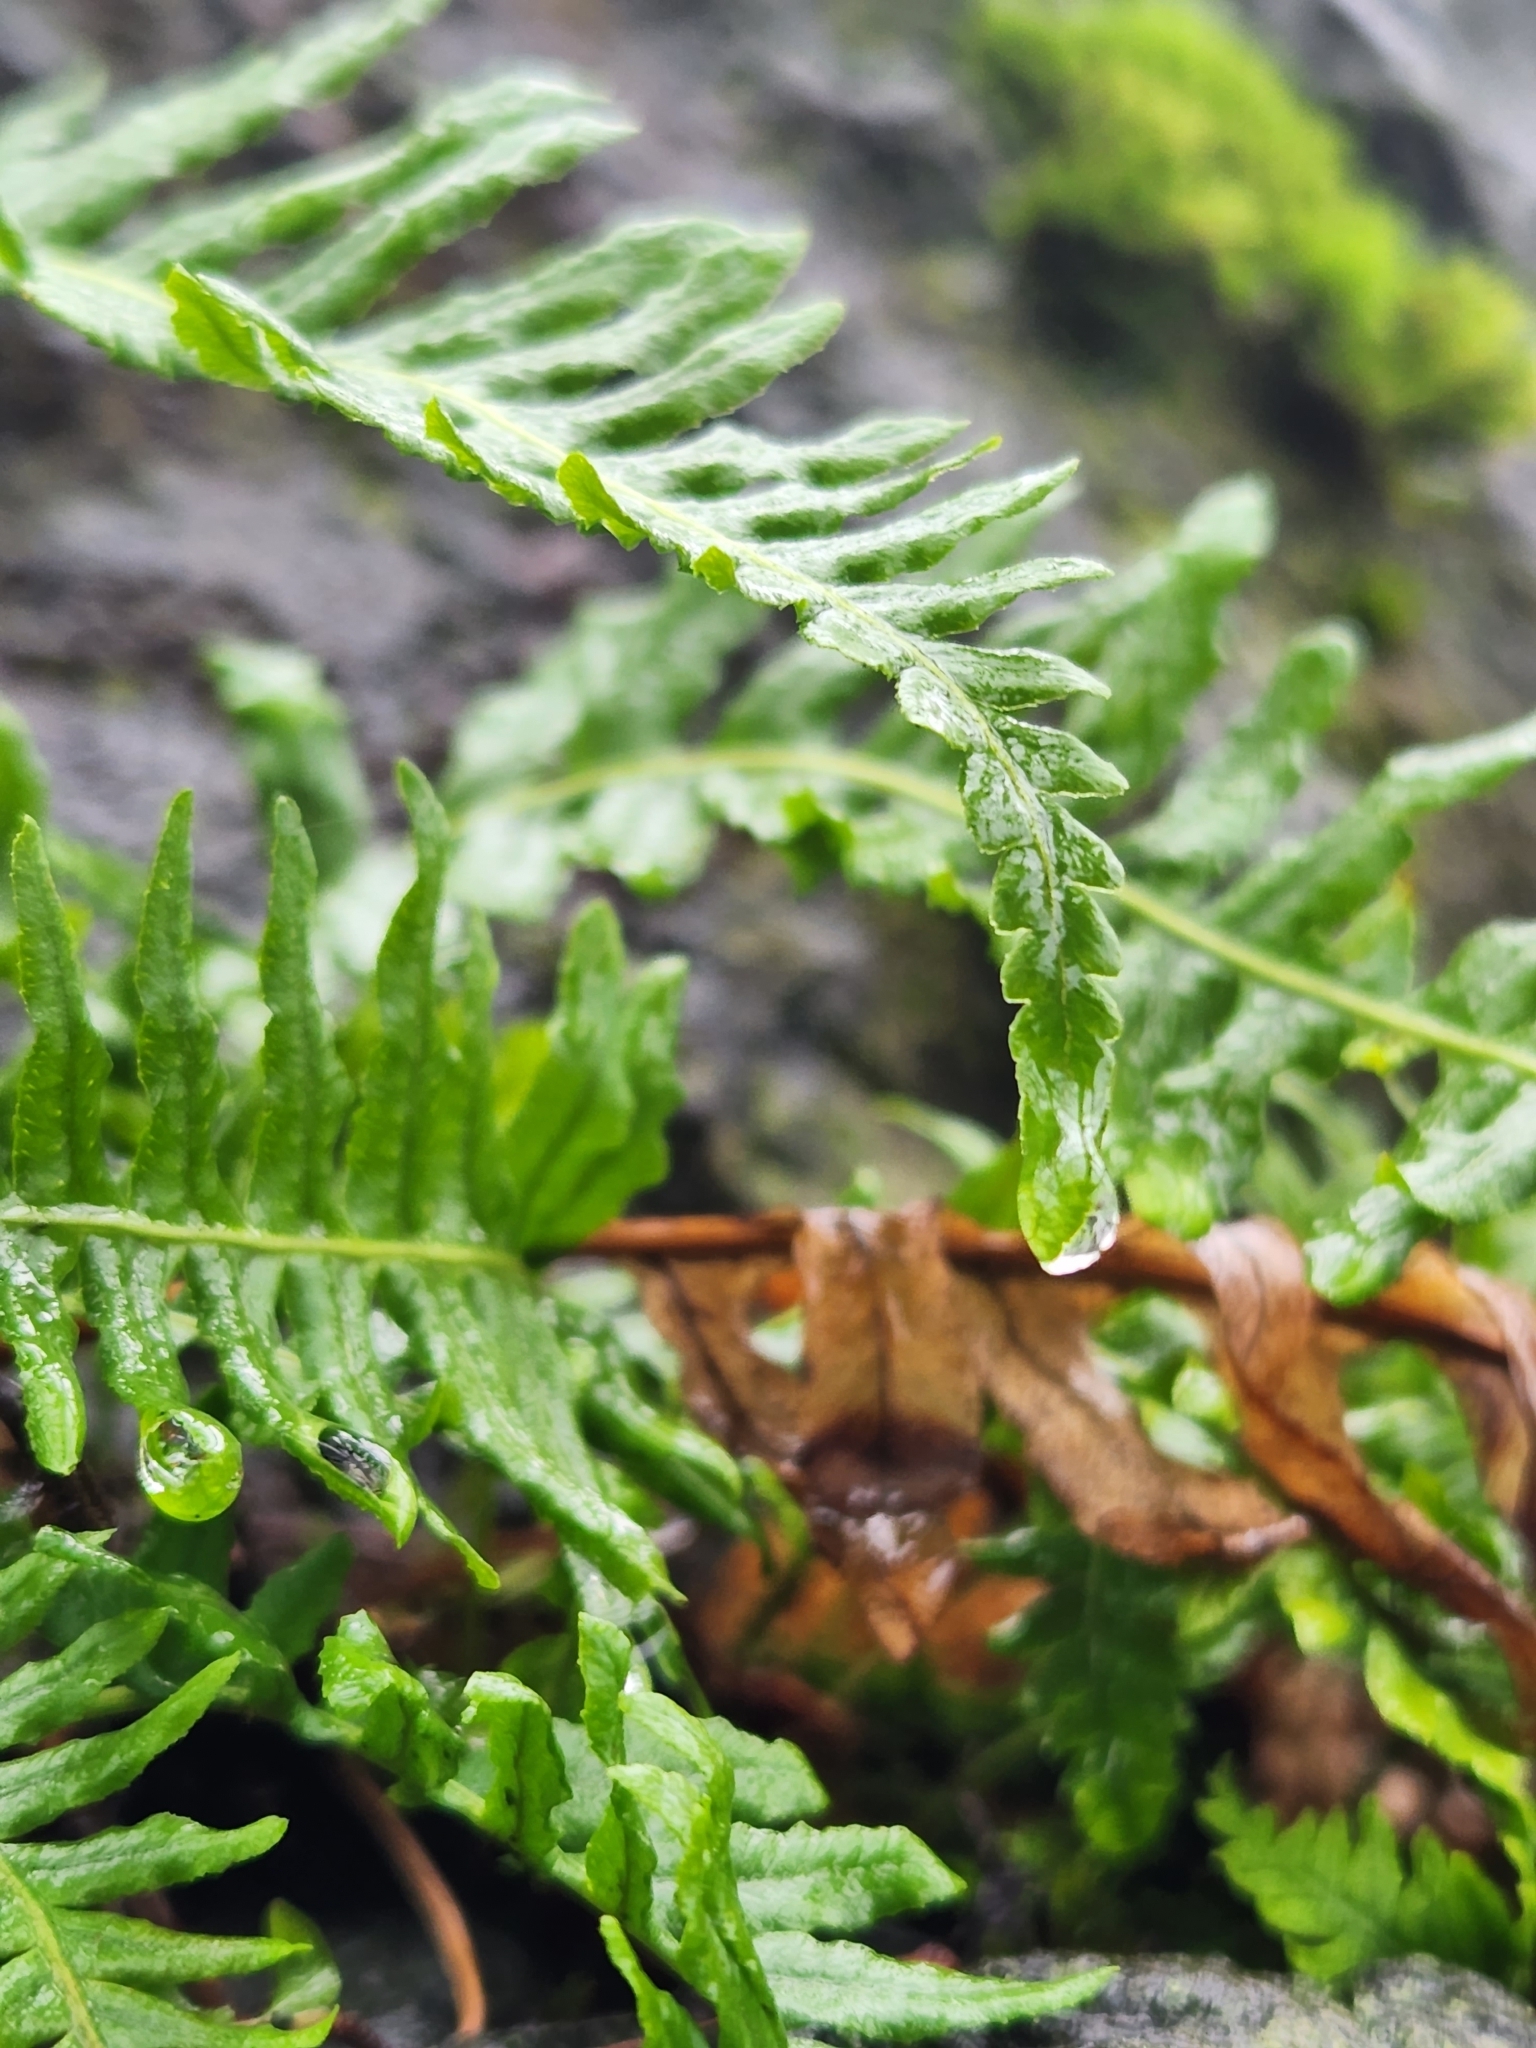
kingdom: Plantae
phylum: Tracheophyta
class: Polypodiopsida
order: Polypodiales
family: Polypodiaceae
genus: Polypodium
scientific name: Polypodium glycyrrhiza
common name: Licorice fern
